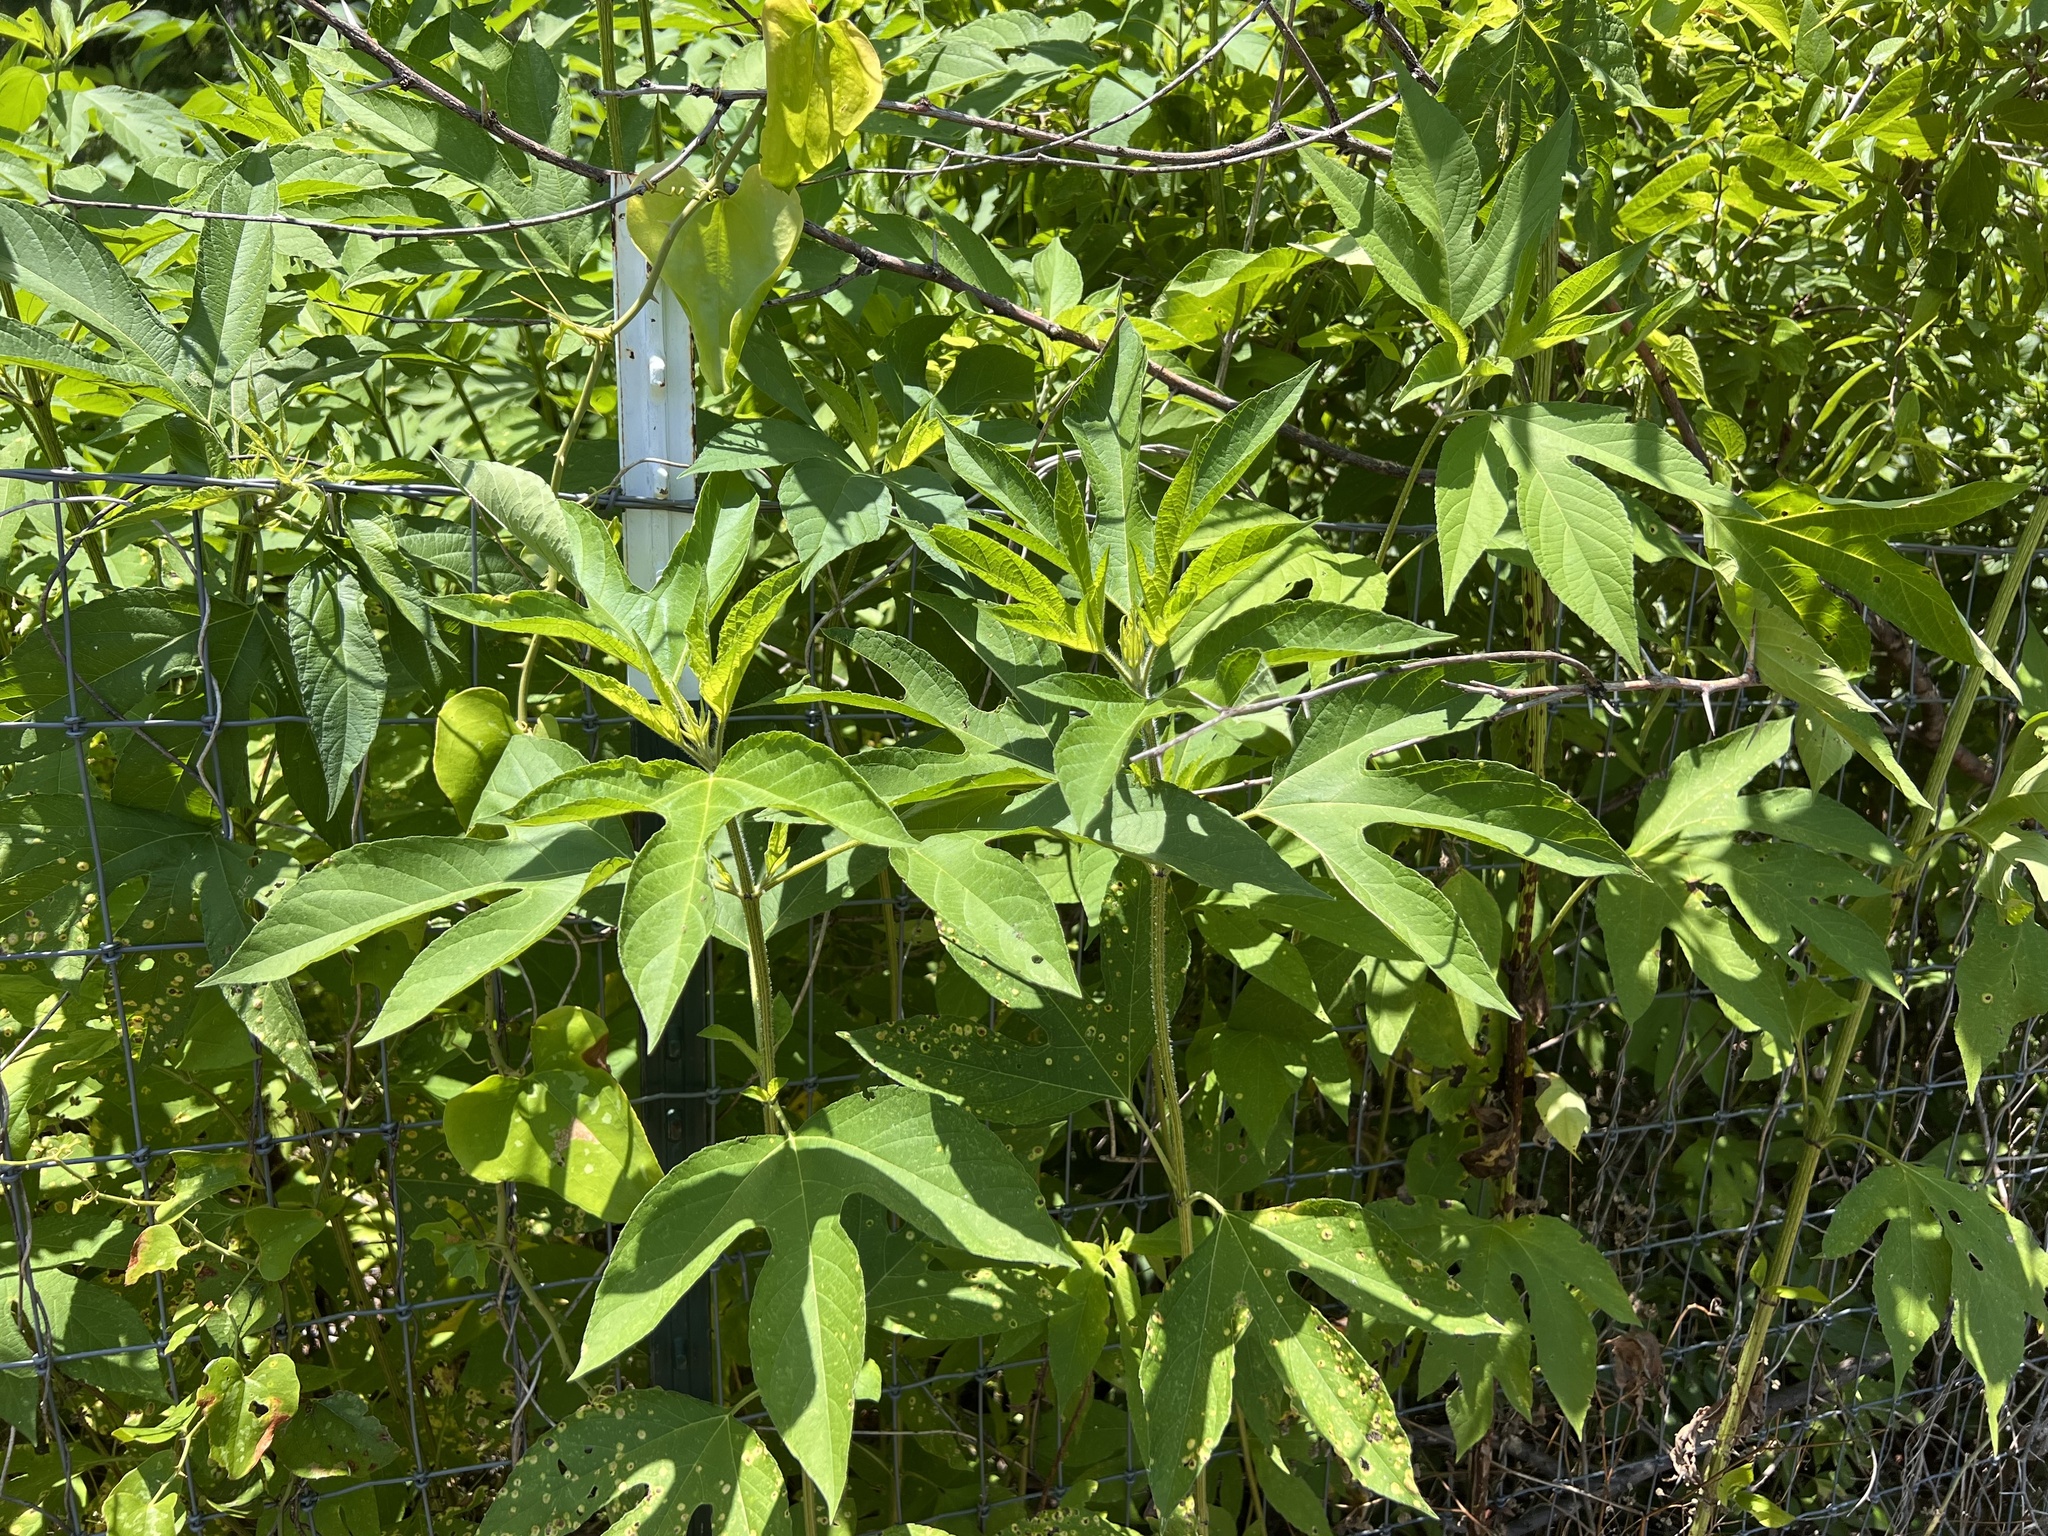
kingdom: Plantae
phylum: Tracheophyta
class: Magnoliopsida
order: Asterales
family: Asteraceae
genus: Ambrosia
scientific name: Ambrosia trifida
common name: Giant ragweed
